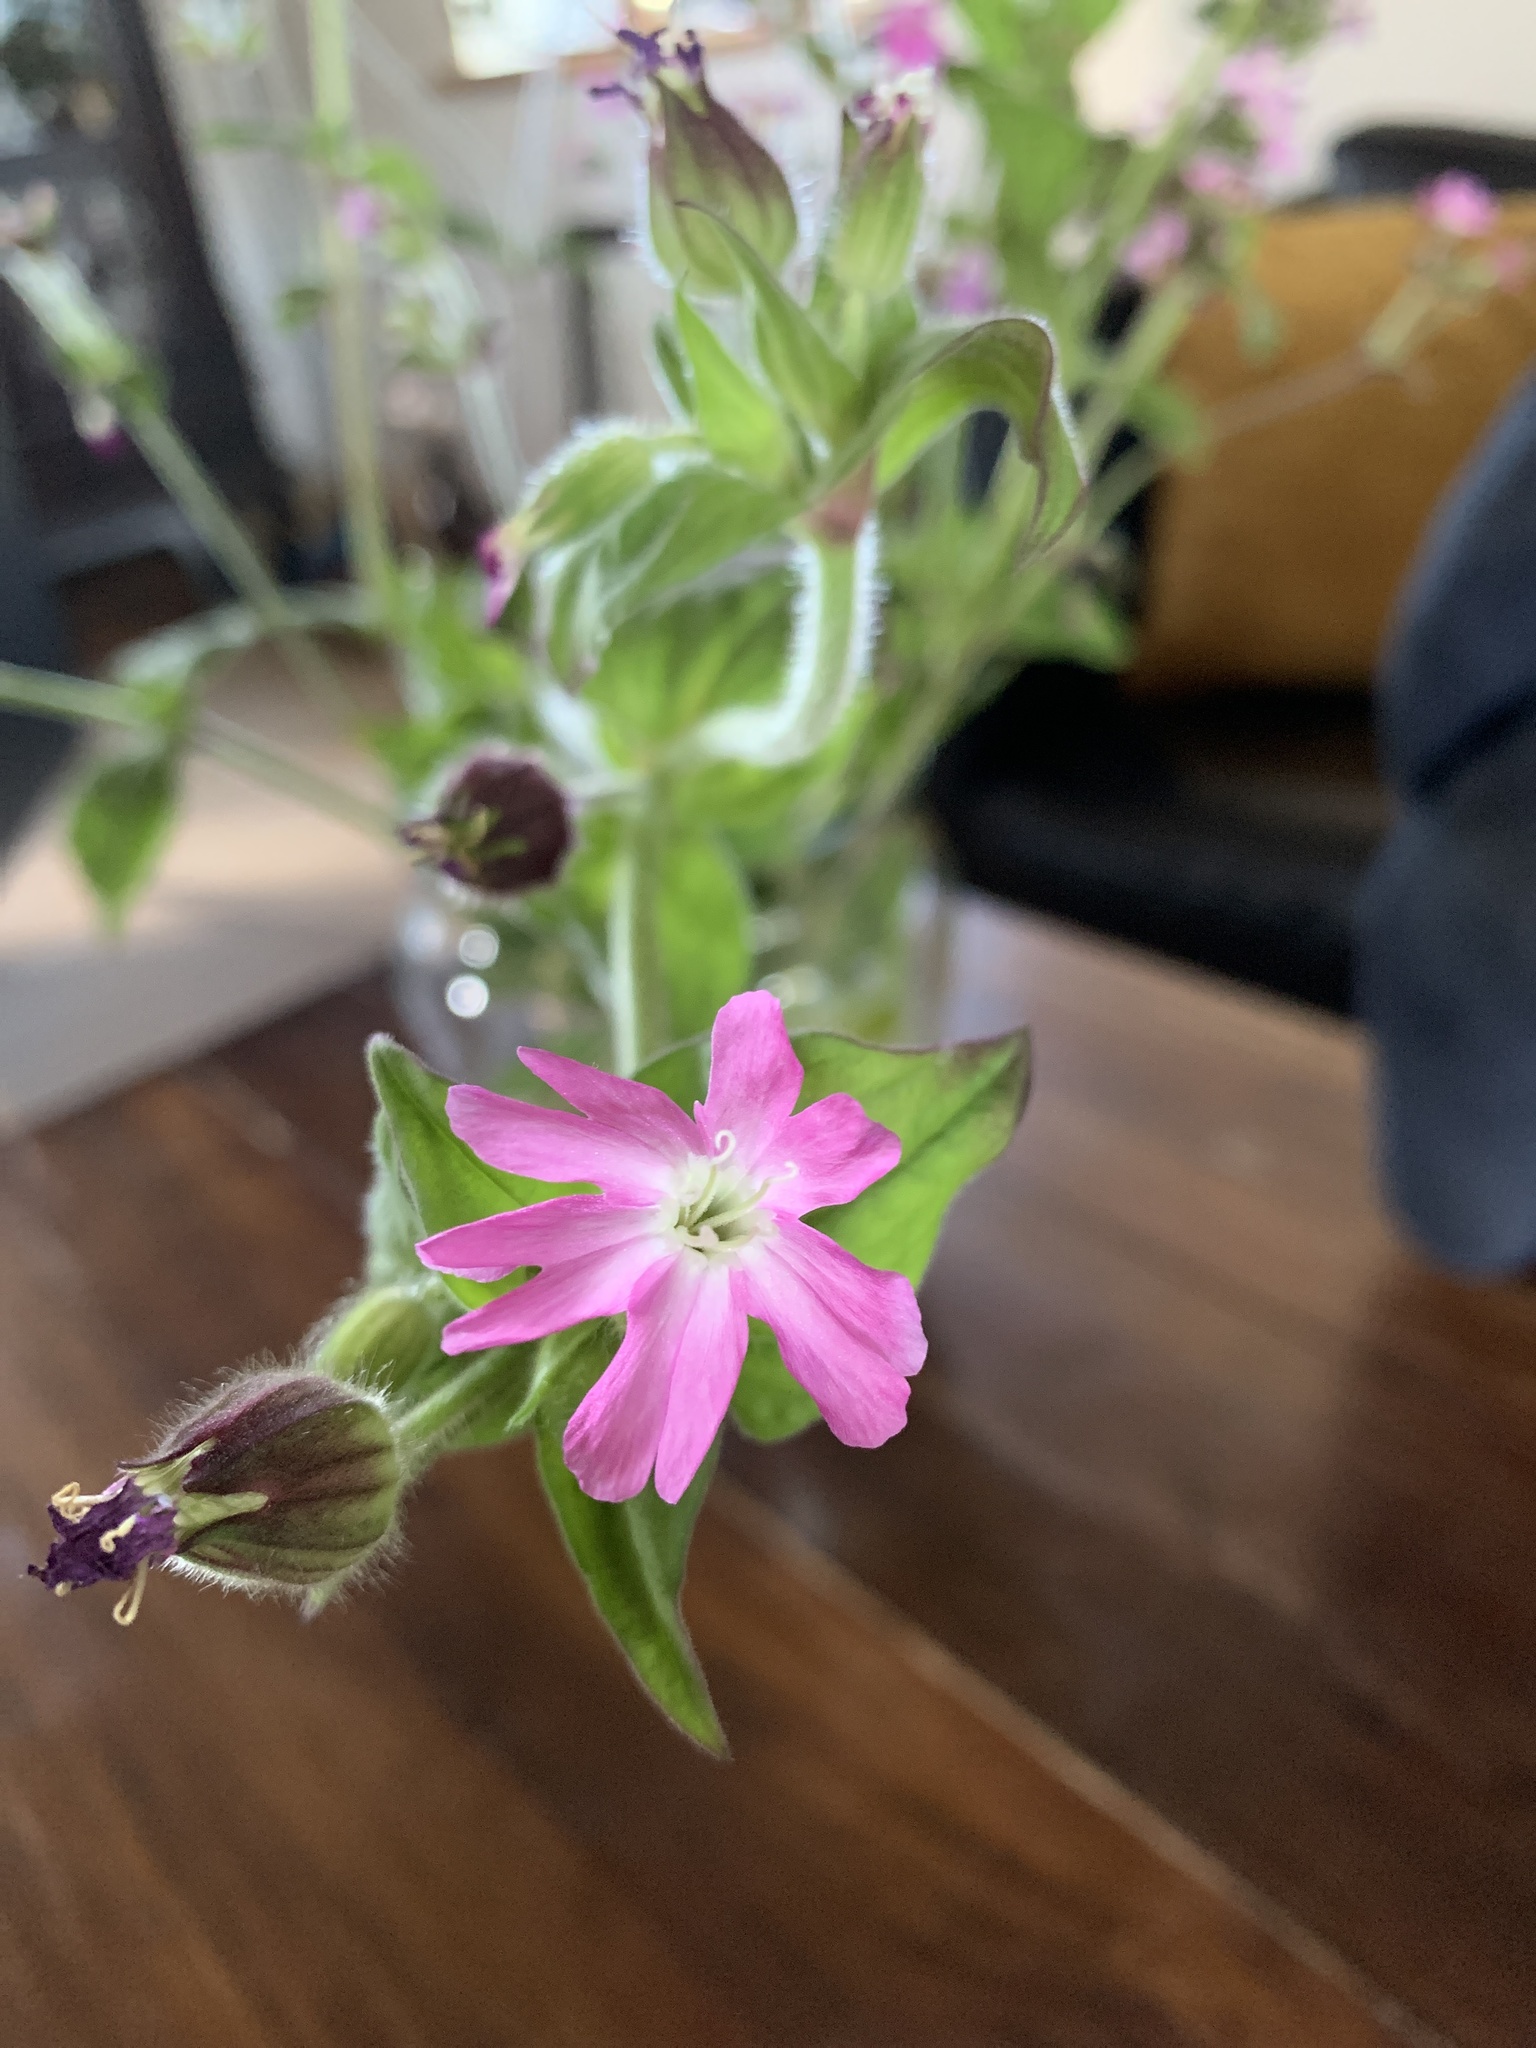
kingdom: Plantae
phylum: Tracheophyta
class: Magnoliopsida
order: Caryophyllales
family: Caryophyllaceae
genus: Silene
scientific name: Silene dioica
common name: Red campion
